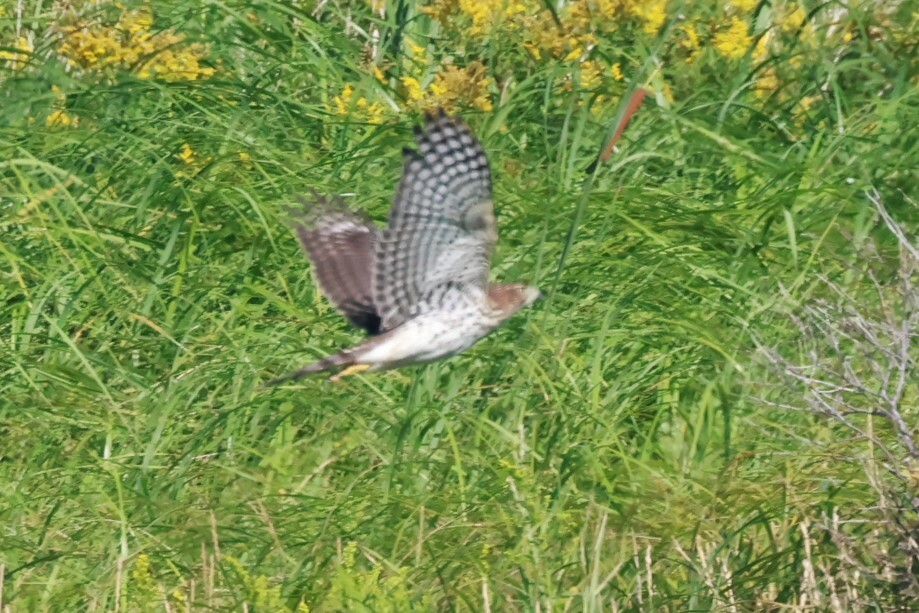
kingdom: Animalia
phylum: Chordata
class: Aves
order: Accipitriformes
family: Accipitridae
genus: Accipiter
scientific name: Accipiter cooperii
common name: Cooper's hawk
